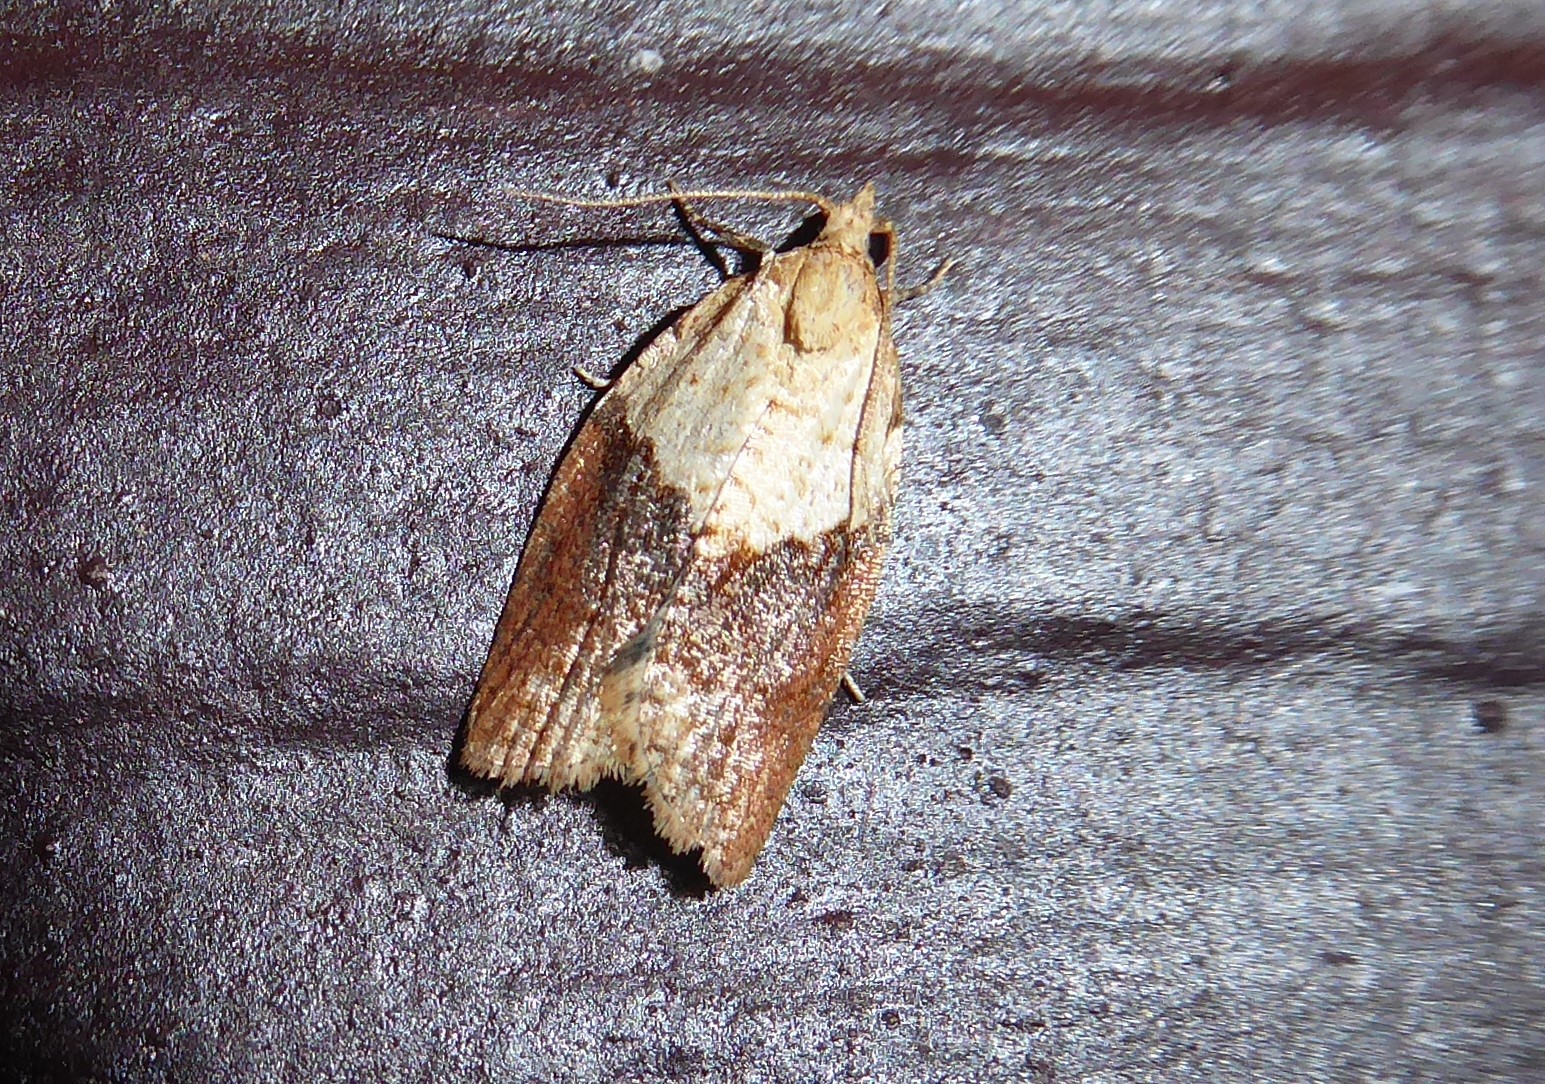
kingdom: Animalia
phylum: Arthropoda
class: Insecta
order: Lepidoptera
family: Tortricidae
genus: Epiphyas
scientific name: Epiphyas postvittana
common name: Light brown apple moth
